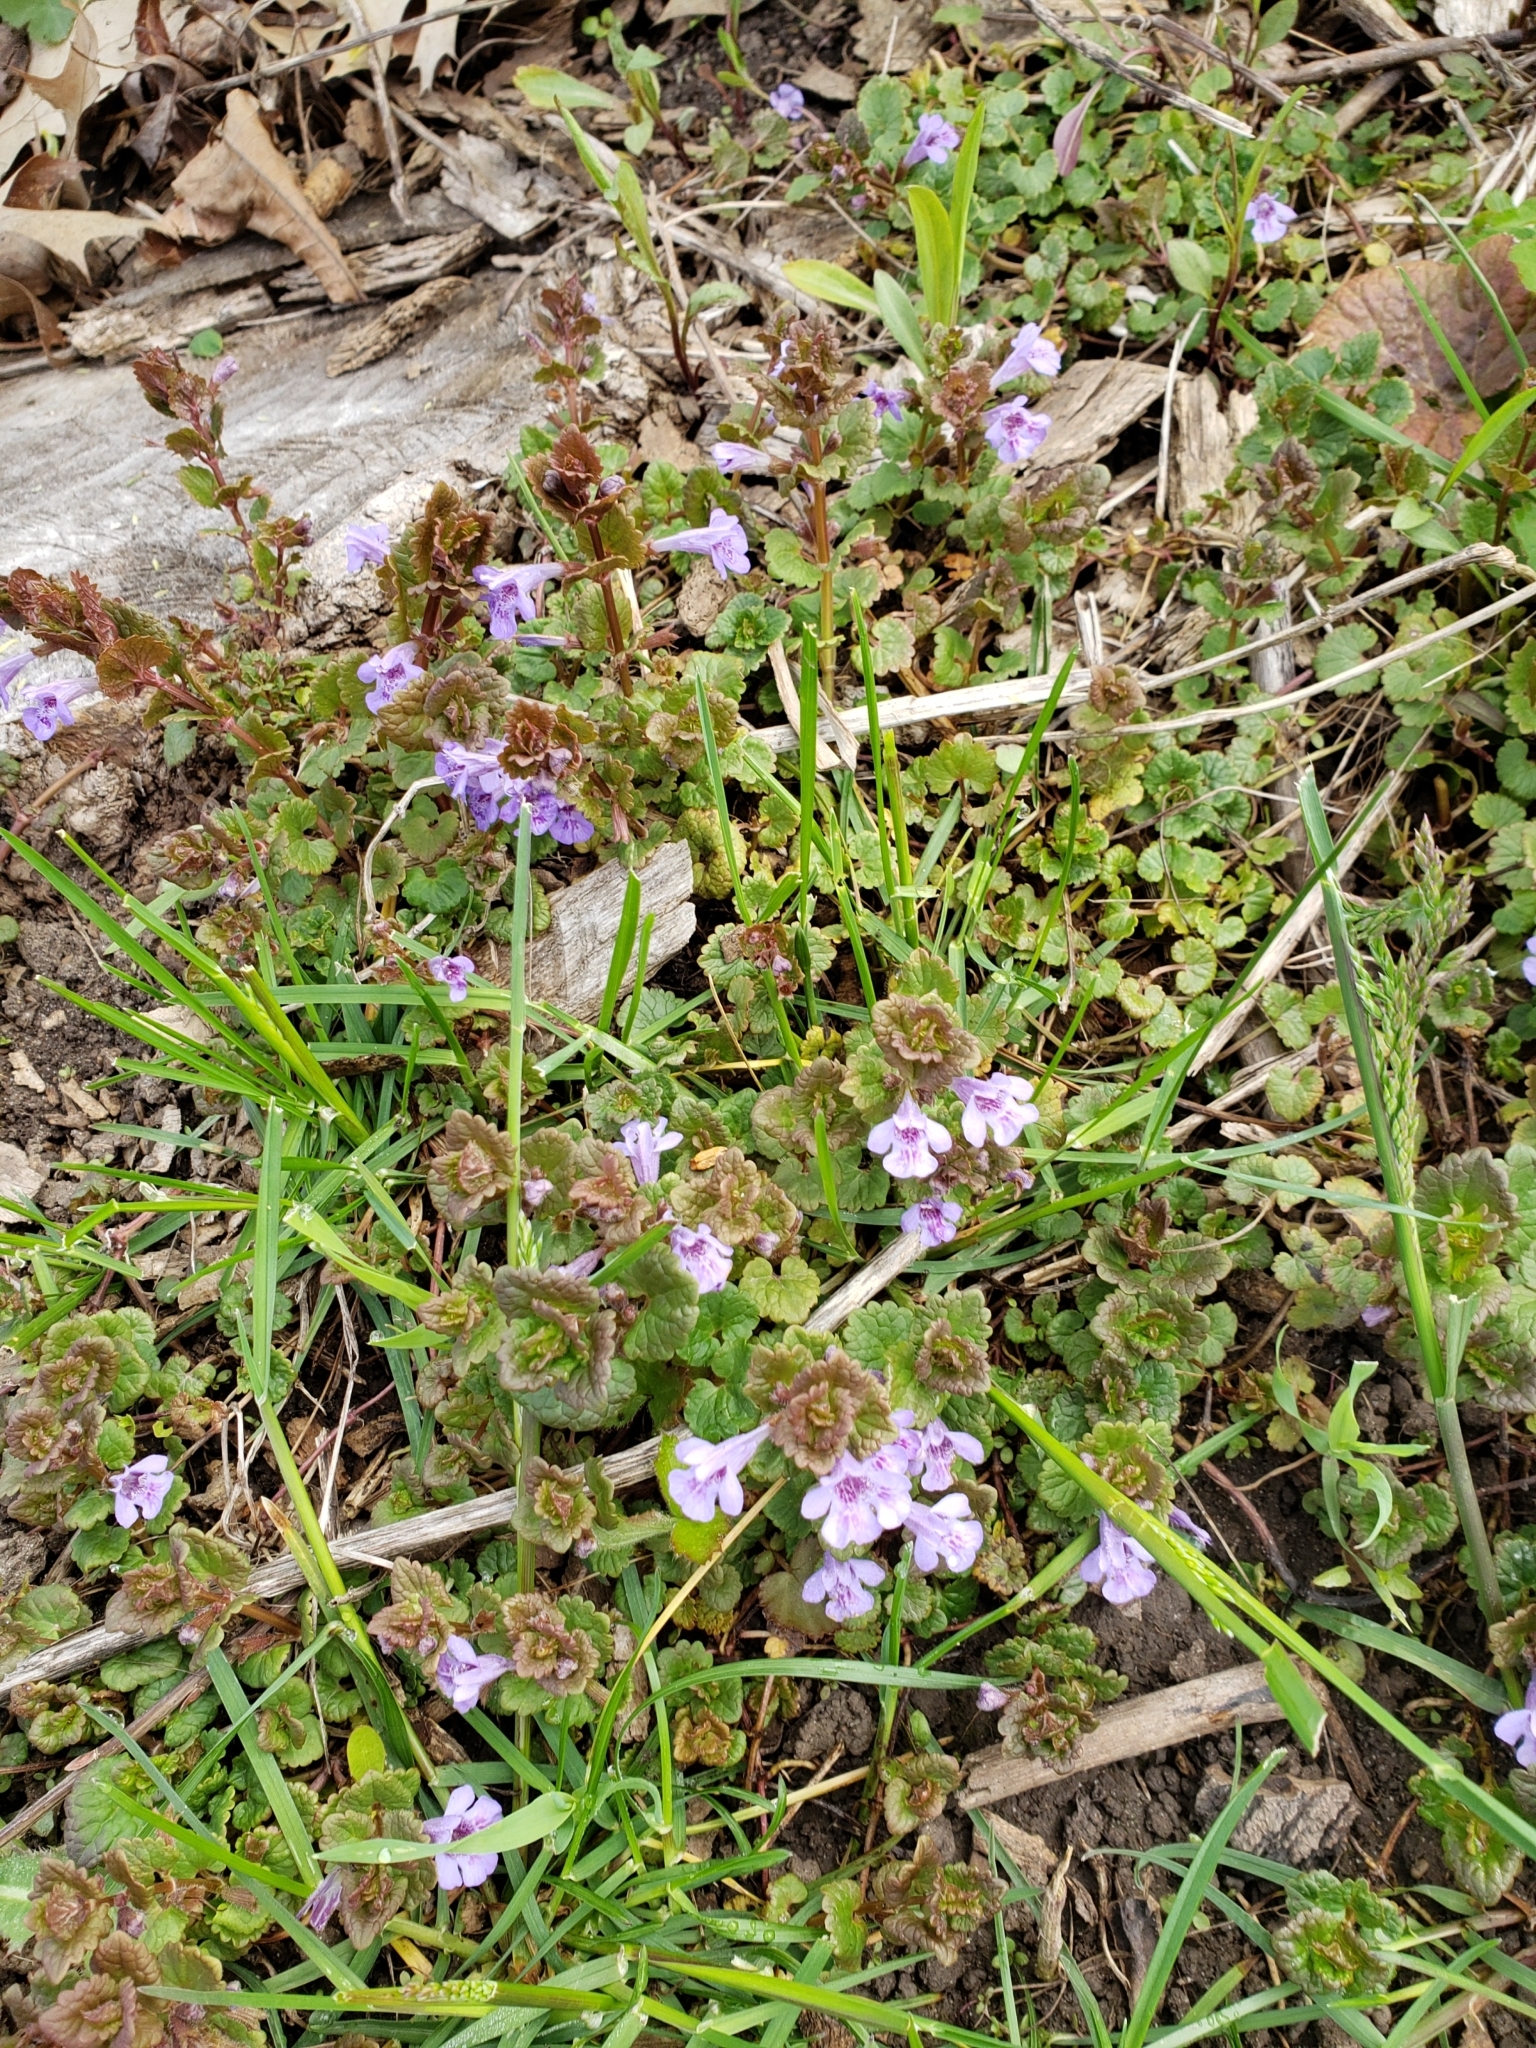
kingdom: Plantae
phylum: Tracheophyta
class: Magnoliopsida
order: Lamiales
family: Lamiaceae
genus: Glechoma
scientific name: Glechoma hederacea
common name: Ground ivy
